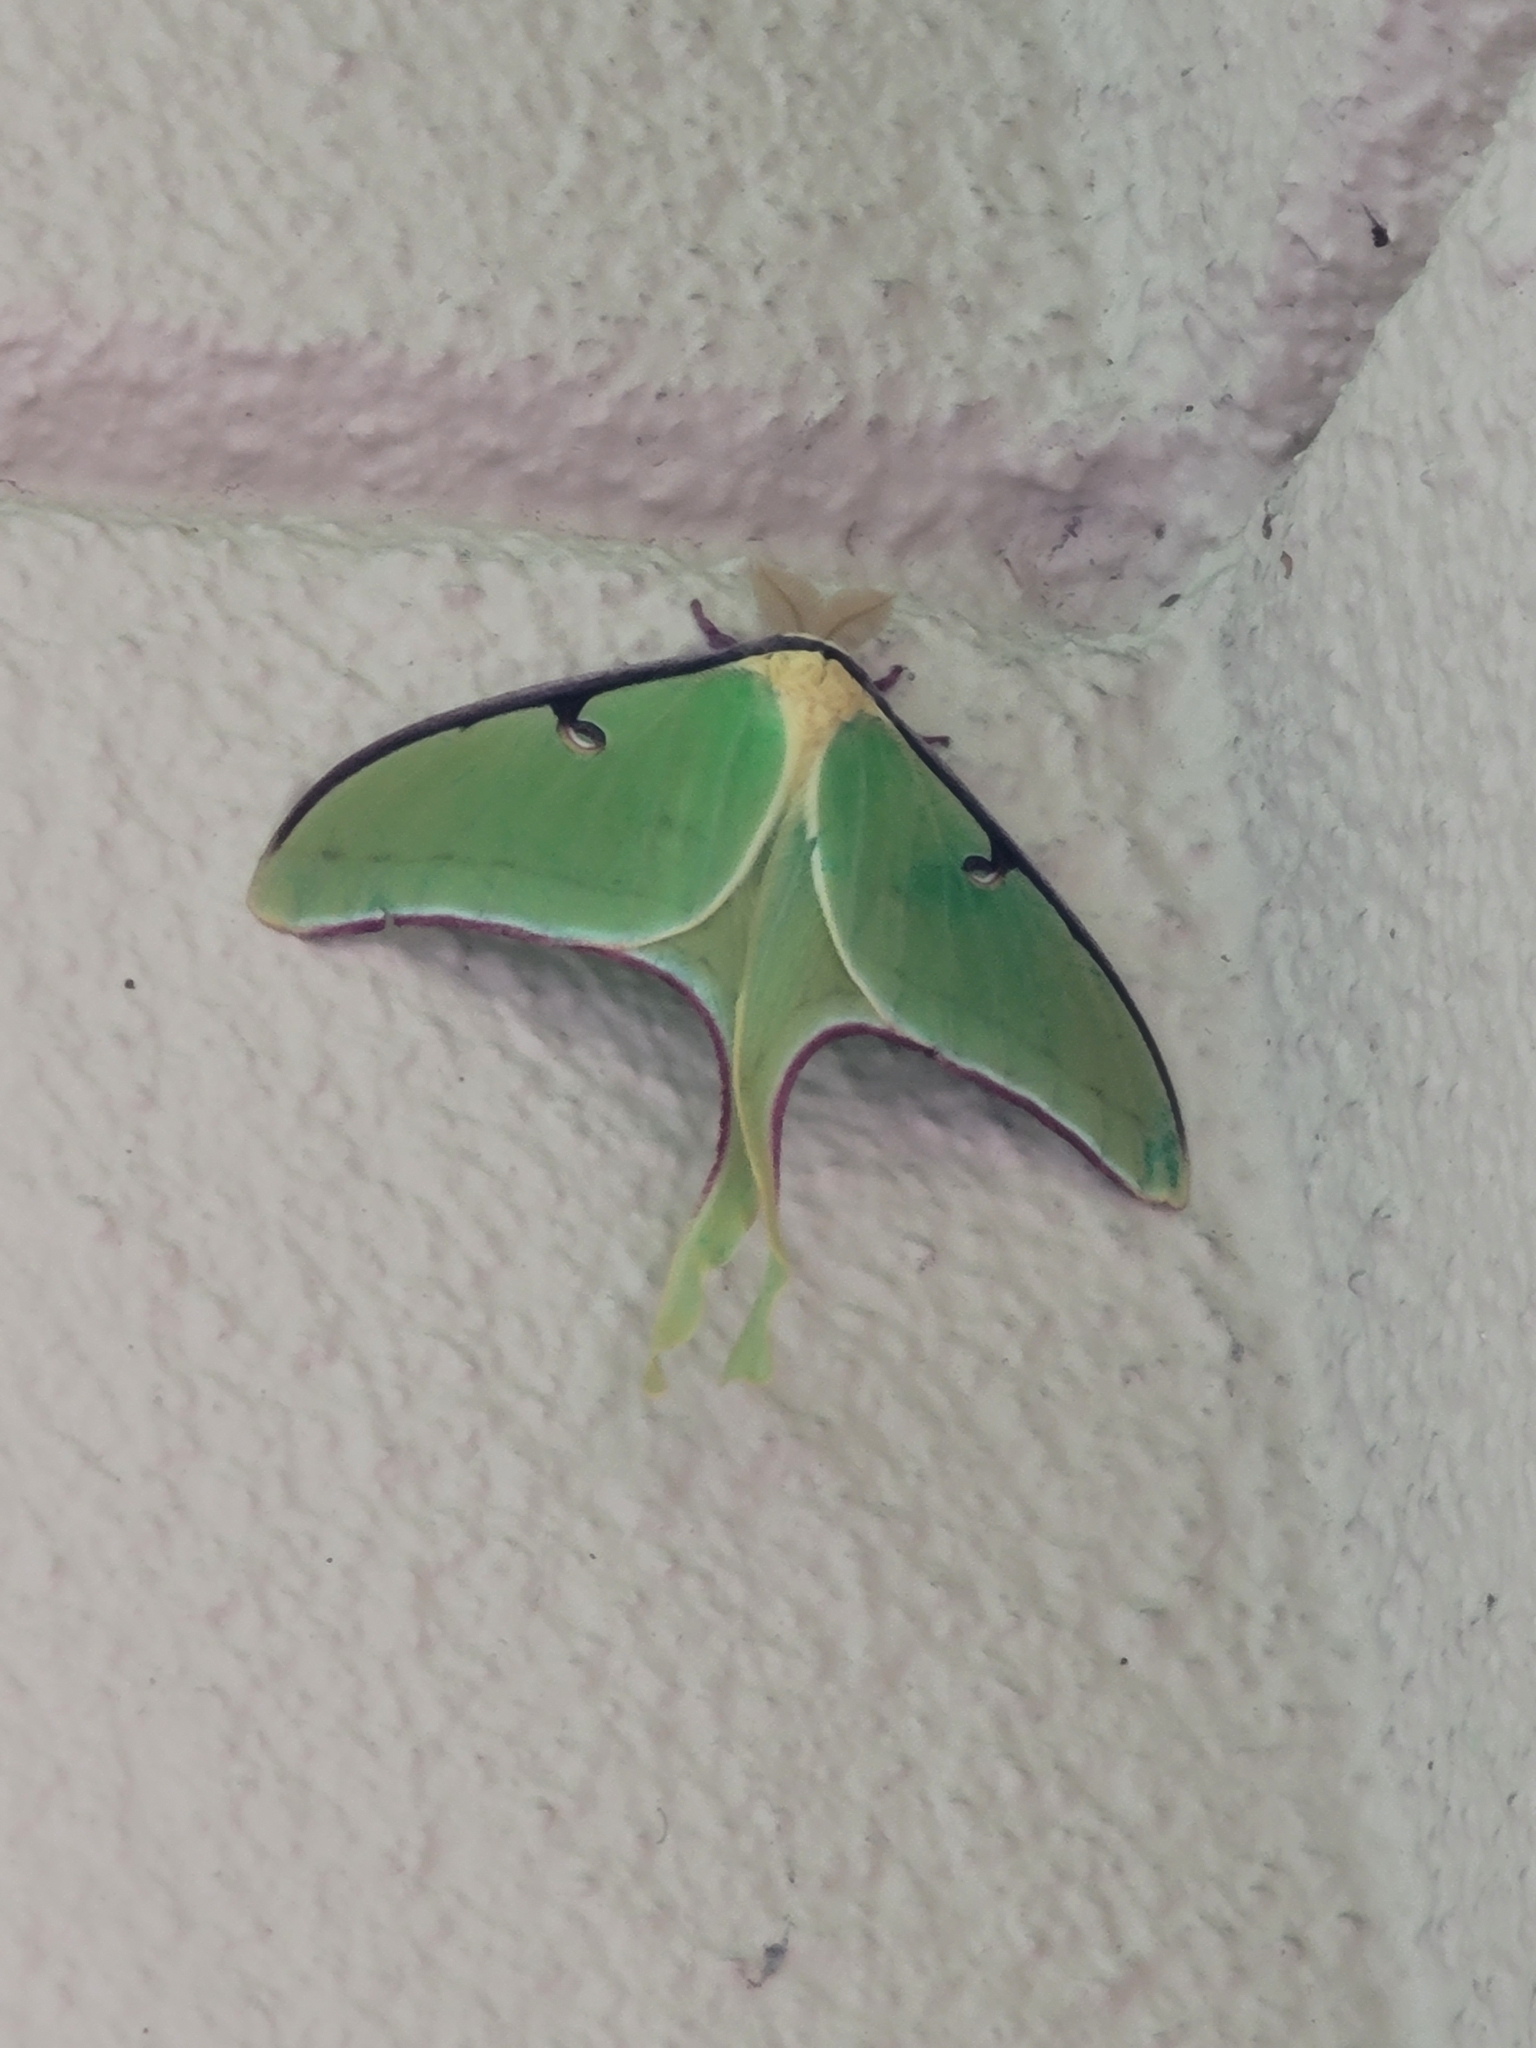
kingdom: Animalia
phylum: Arthropoda
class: Insecta
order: Lepidoptera
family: Saturniidae
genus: Actias
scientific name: Actias luna
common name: Luna moth
